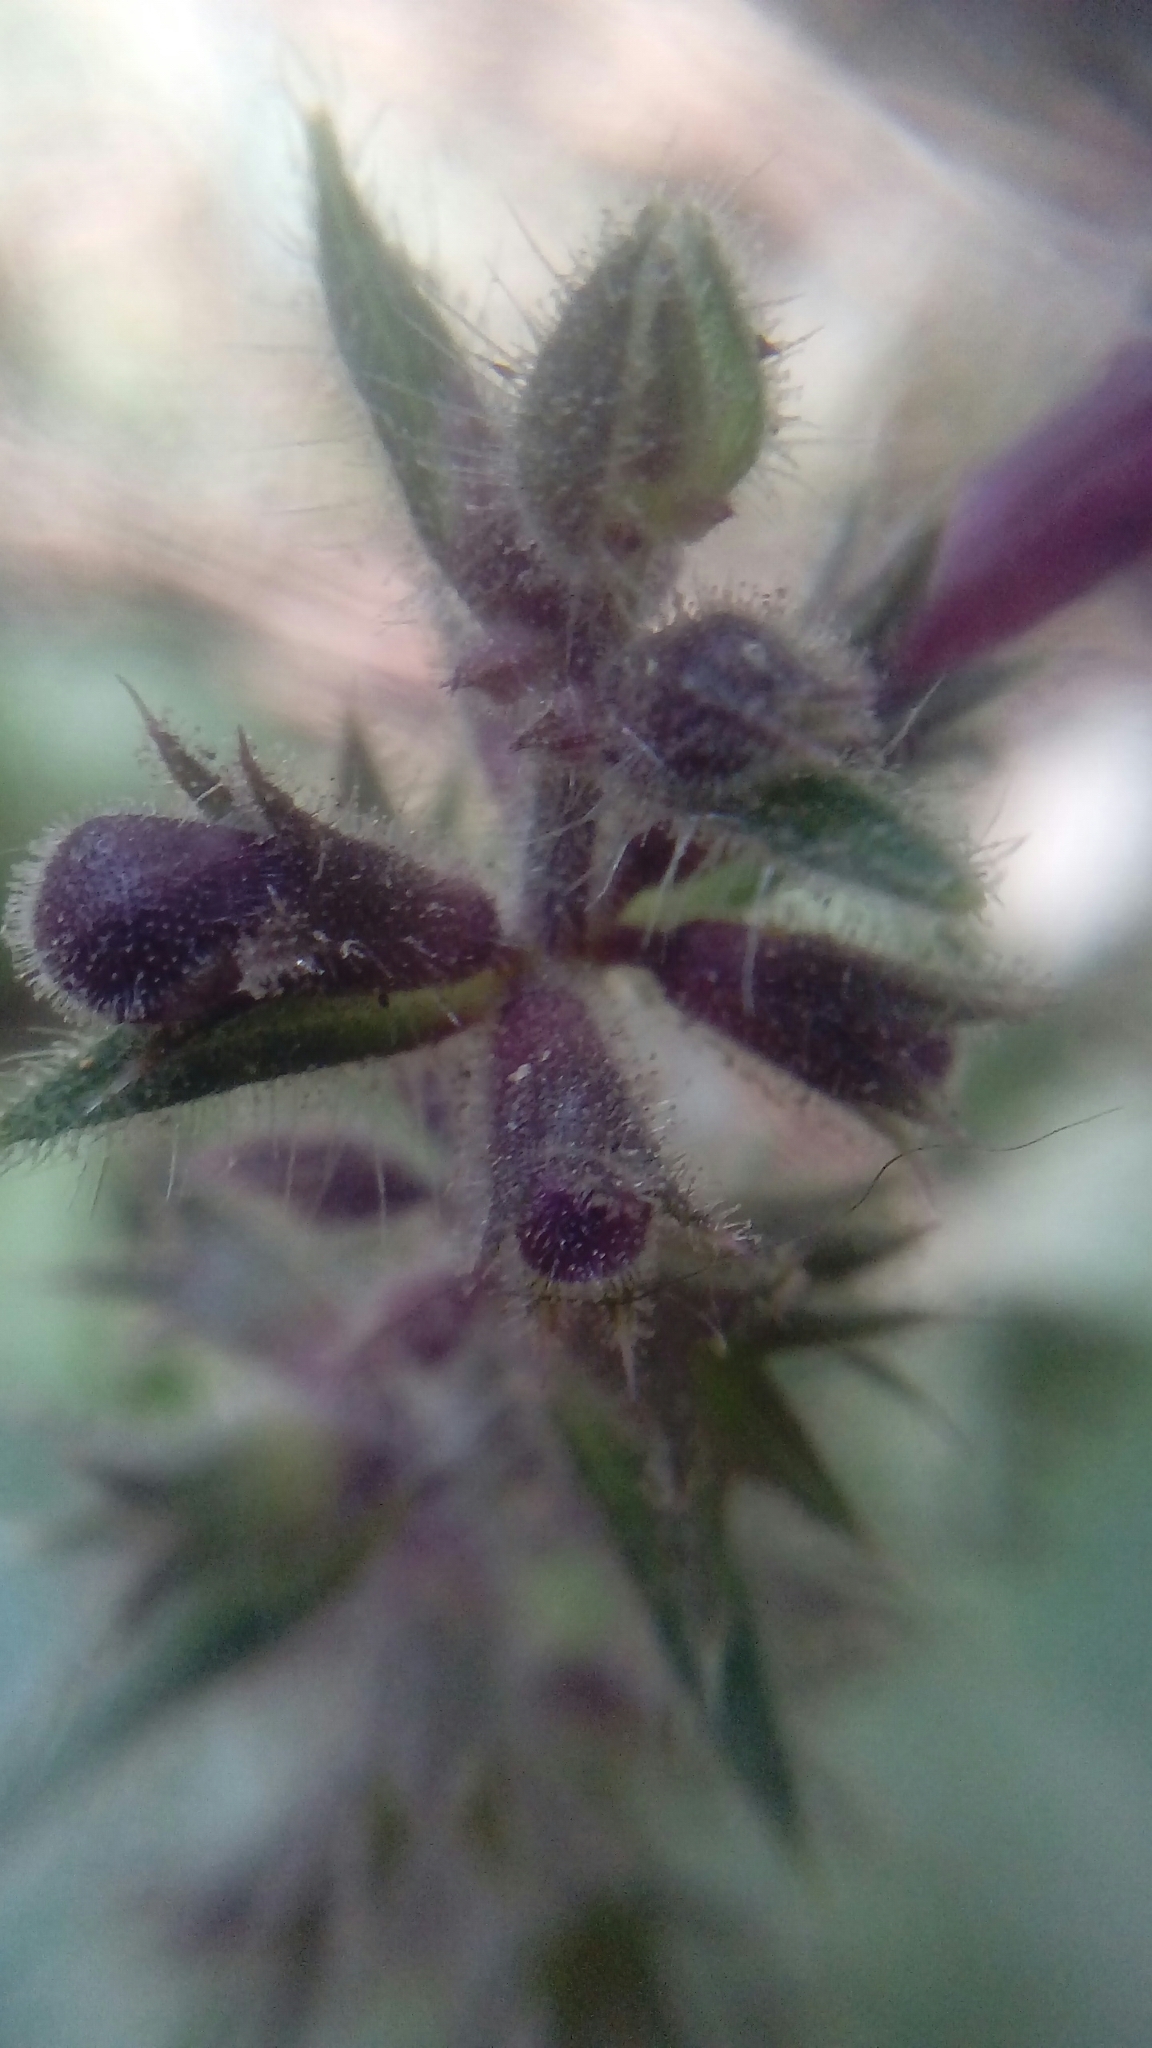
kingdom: Plantae
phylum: Tracheophyta
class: Magnoliopsida
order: Lamiales
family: Lamiaceae
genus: Stachys
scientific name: Stachys sylvatica
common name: Hedge woundwort
